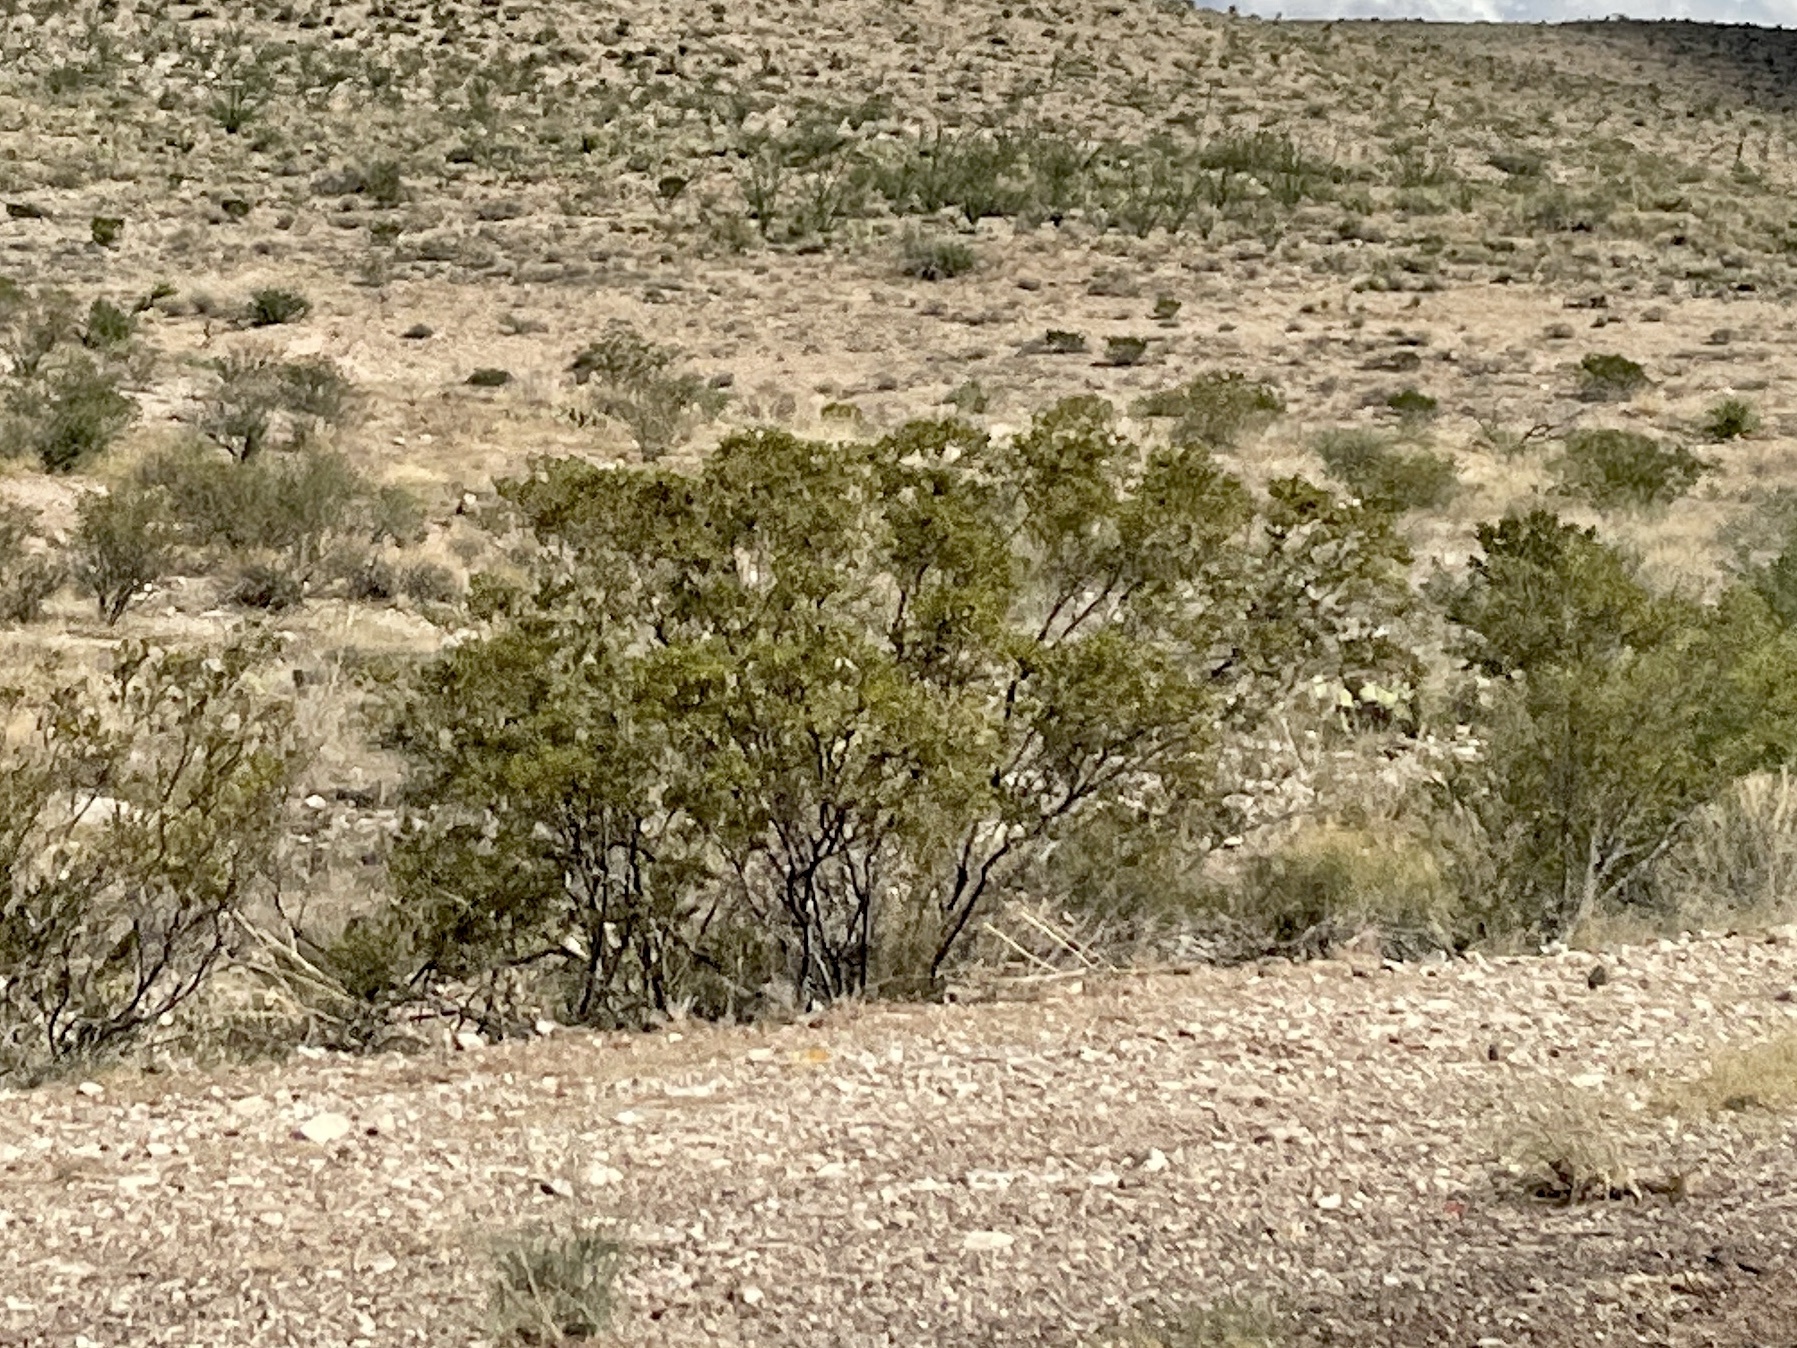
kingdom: Plantae
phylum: Tracheophyta
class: Magnoliopsida
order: Zygophyllales
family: Zygophyllaceae
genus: Larrea
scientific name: Larrea tridentata
